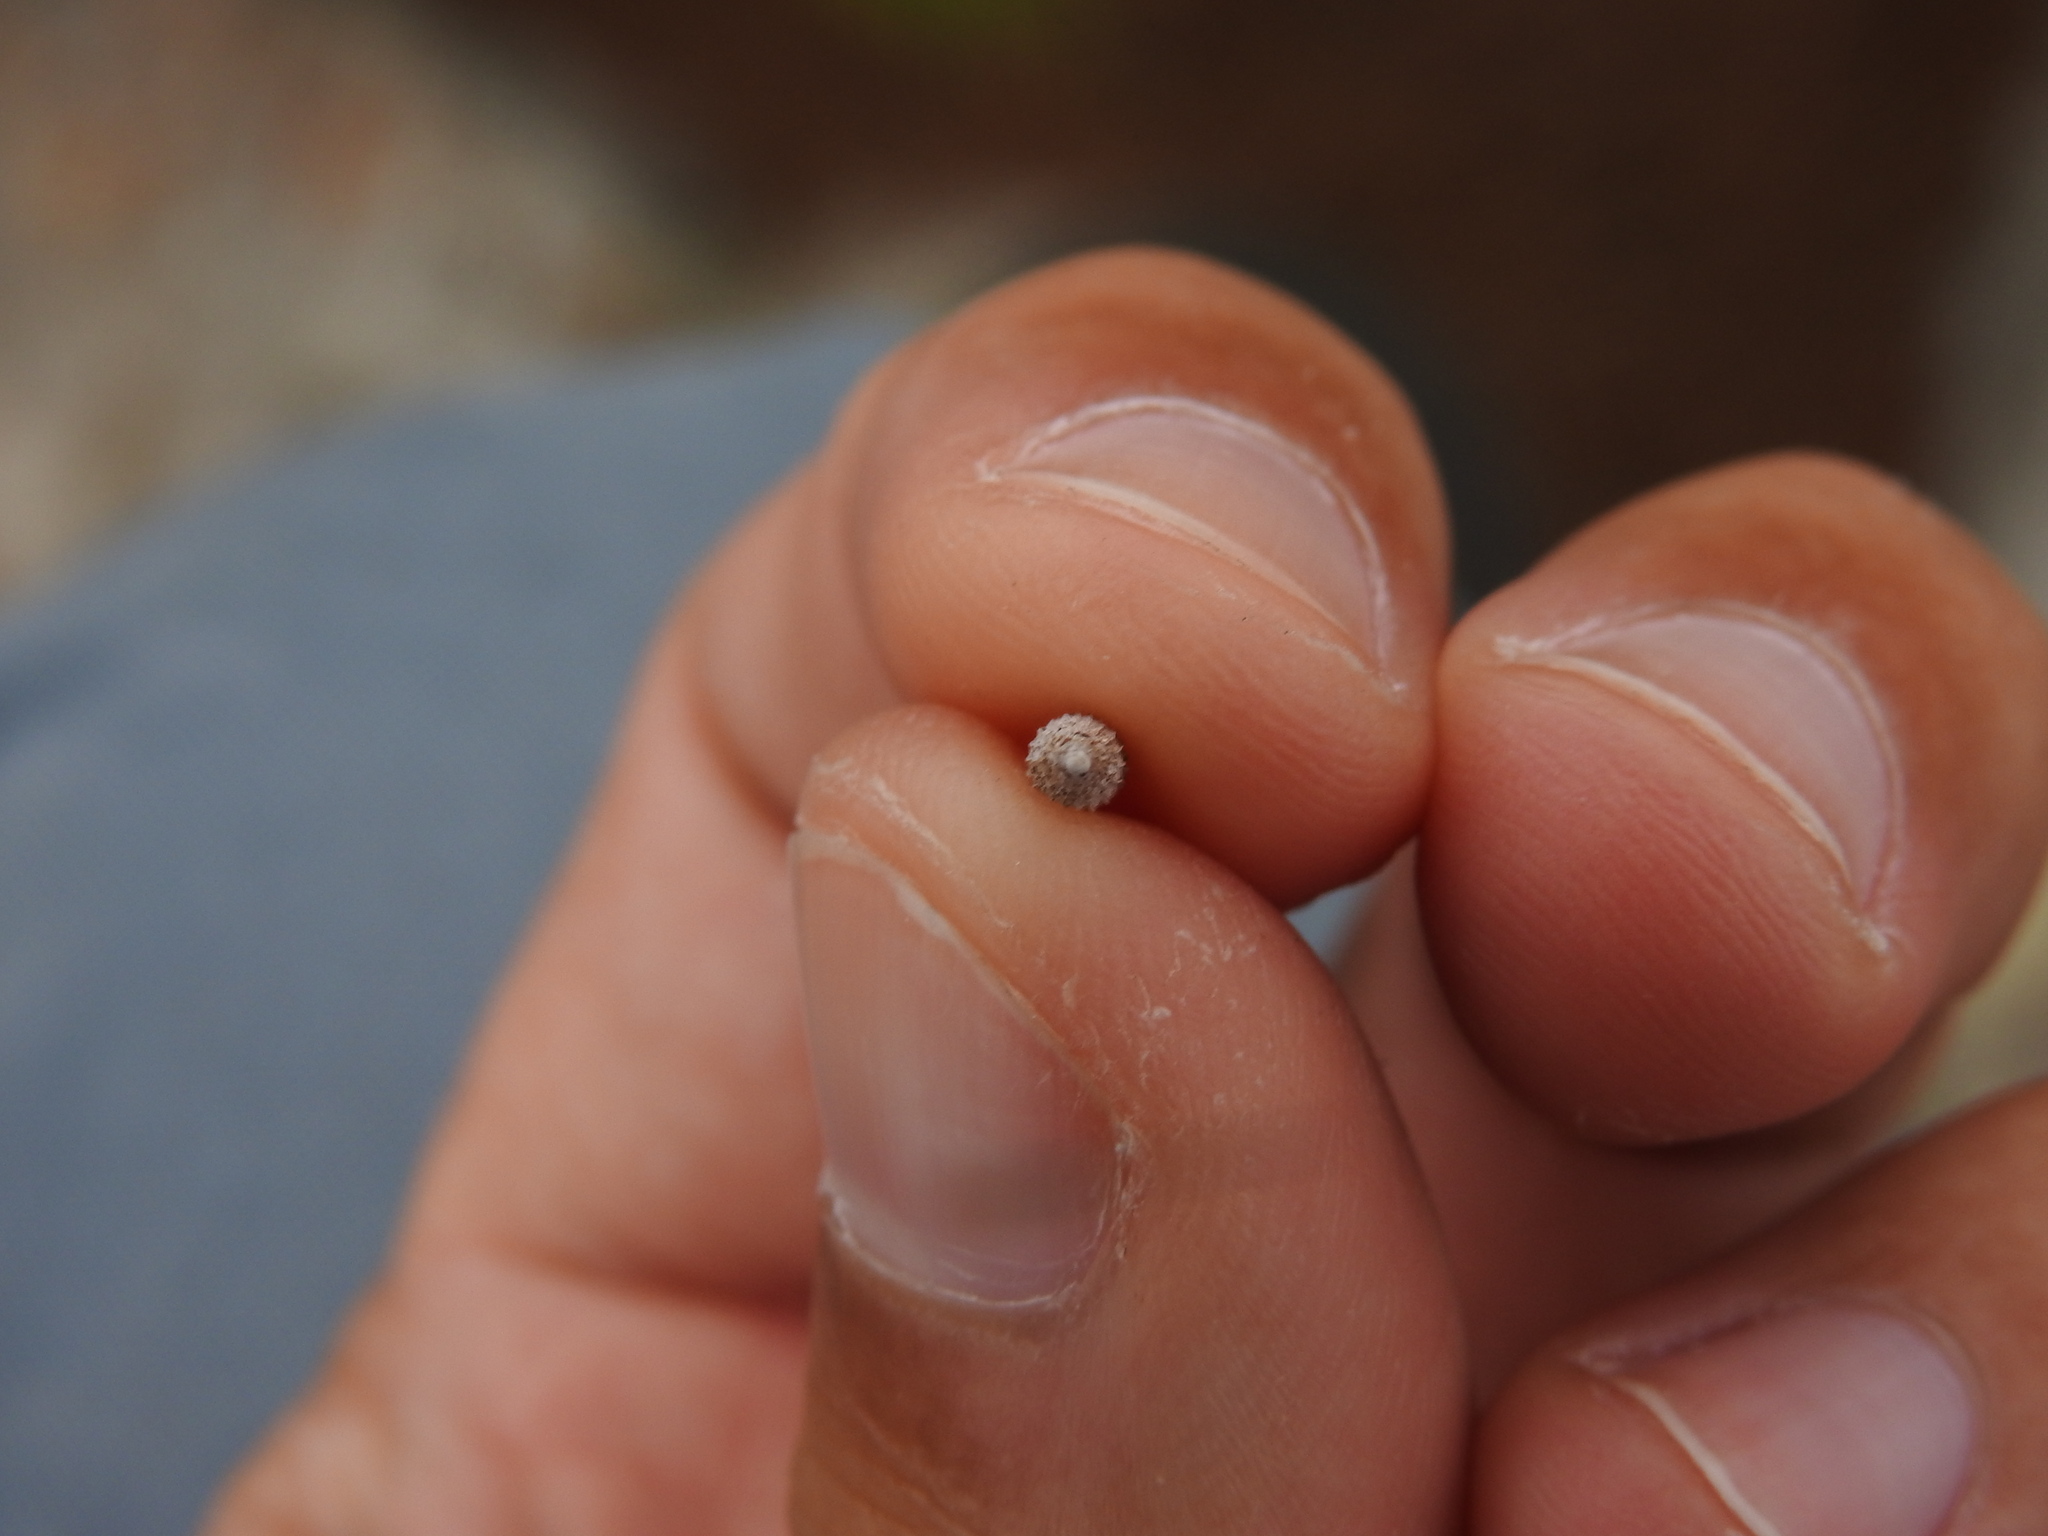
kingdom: Animalia
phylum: Mollusca
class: Gastropoda
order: Stylommatophora
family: Clausiliidae
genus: Boettgeria
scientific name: Boettgeria lowei
